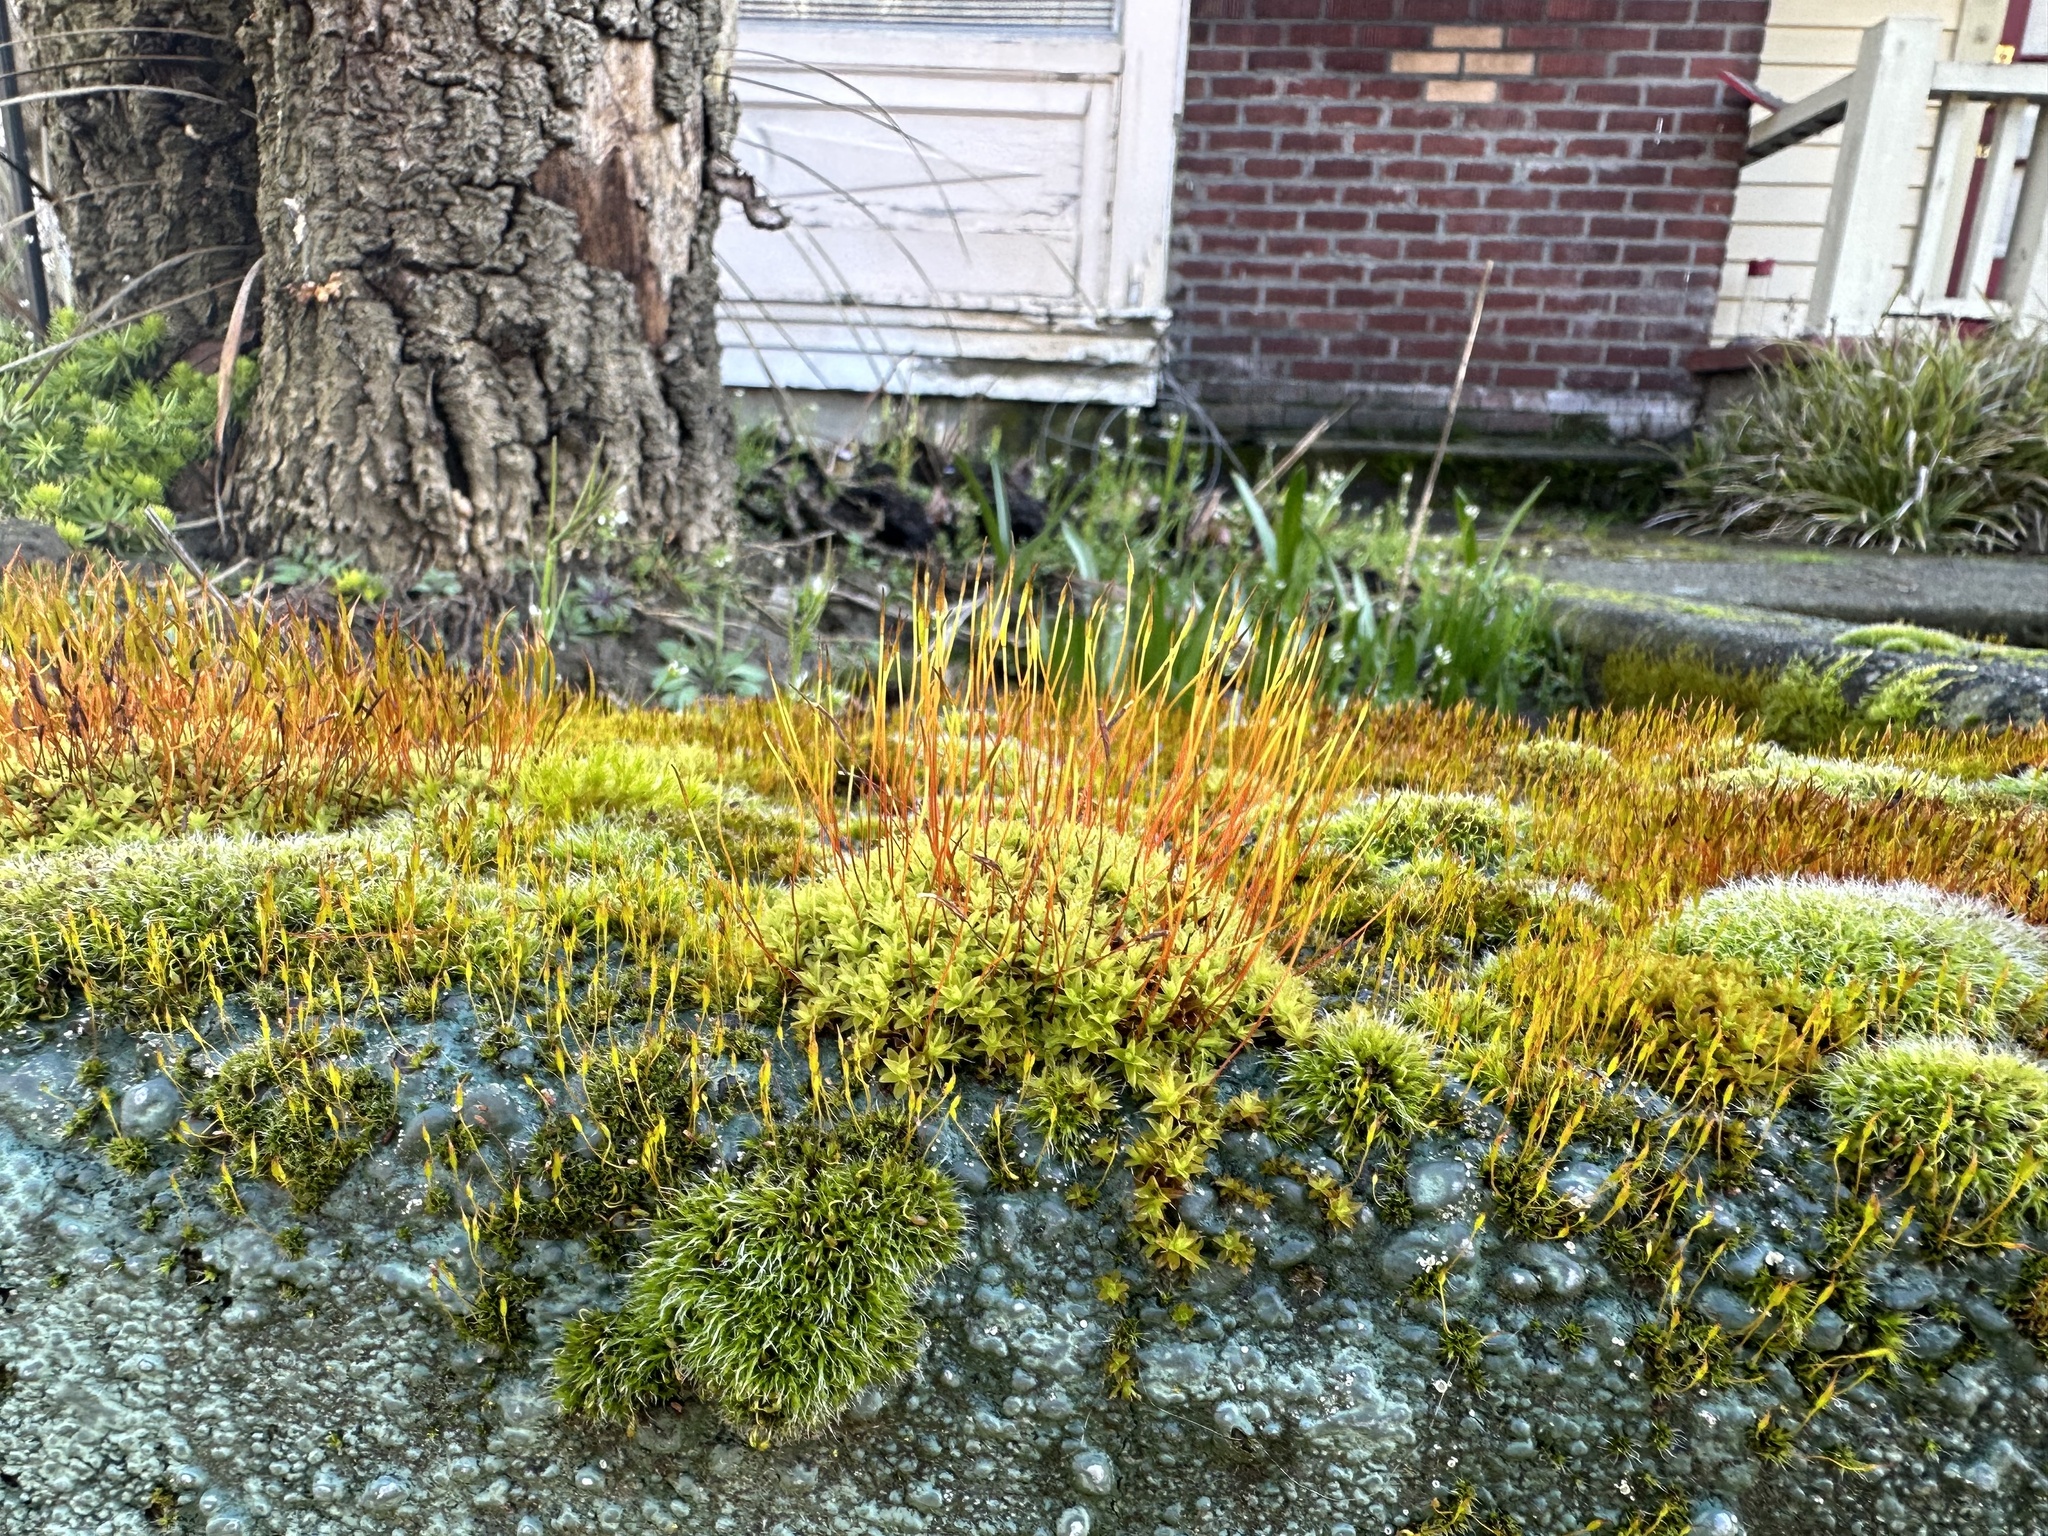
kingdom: Plantae
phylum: Bryophyta
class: Bryopsida
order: Pottiales
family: Pottiaceae
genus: Tortula
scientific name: Tortula muralis
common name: Wall screw-moss
